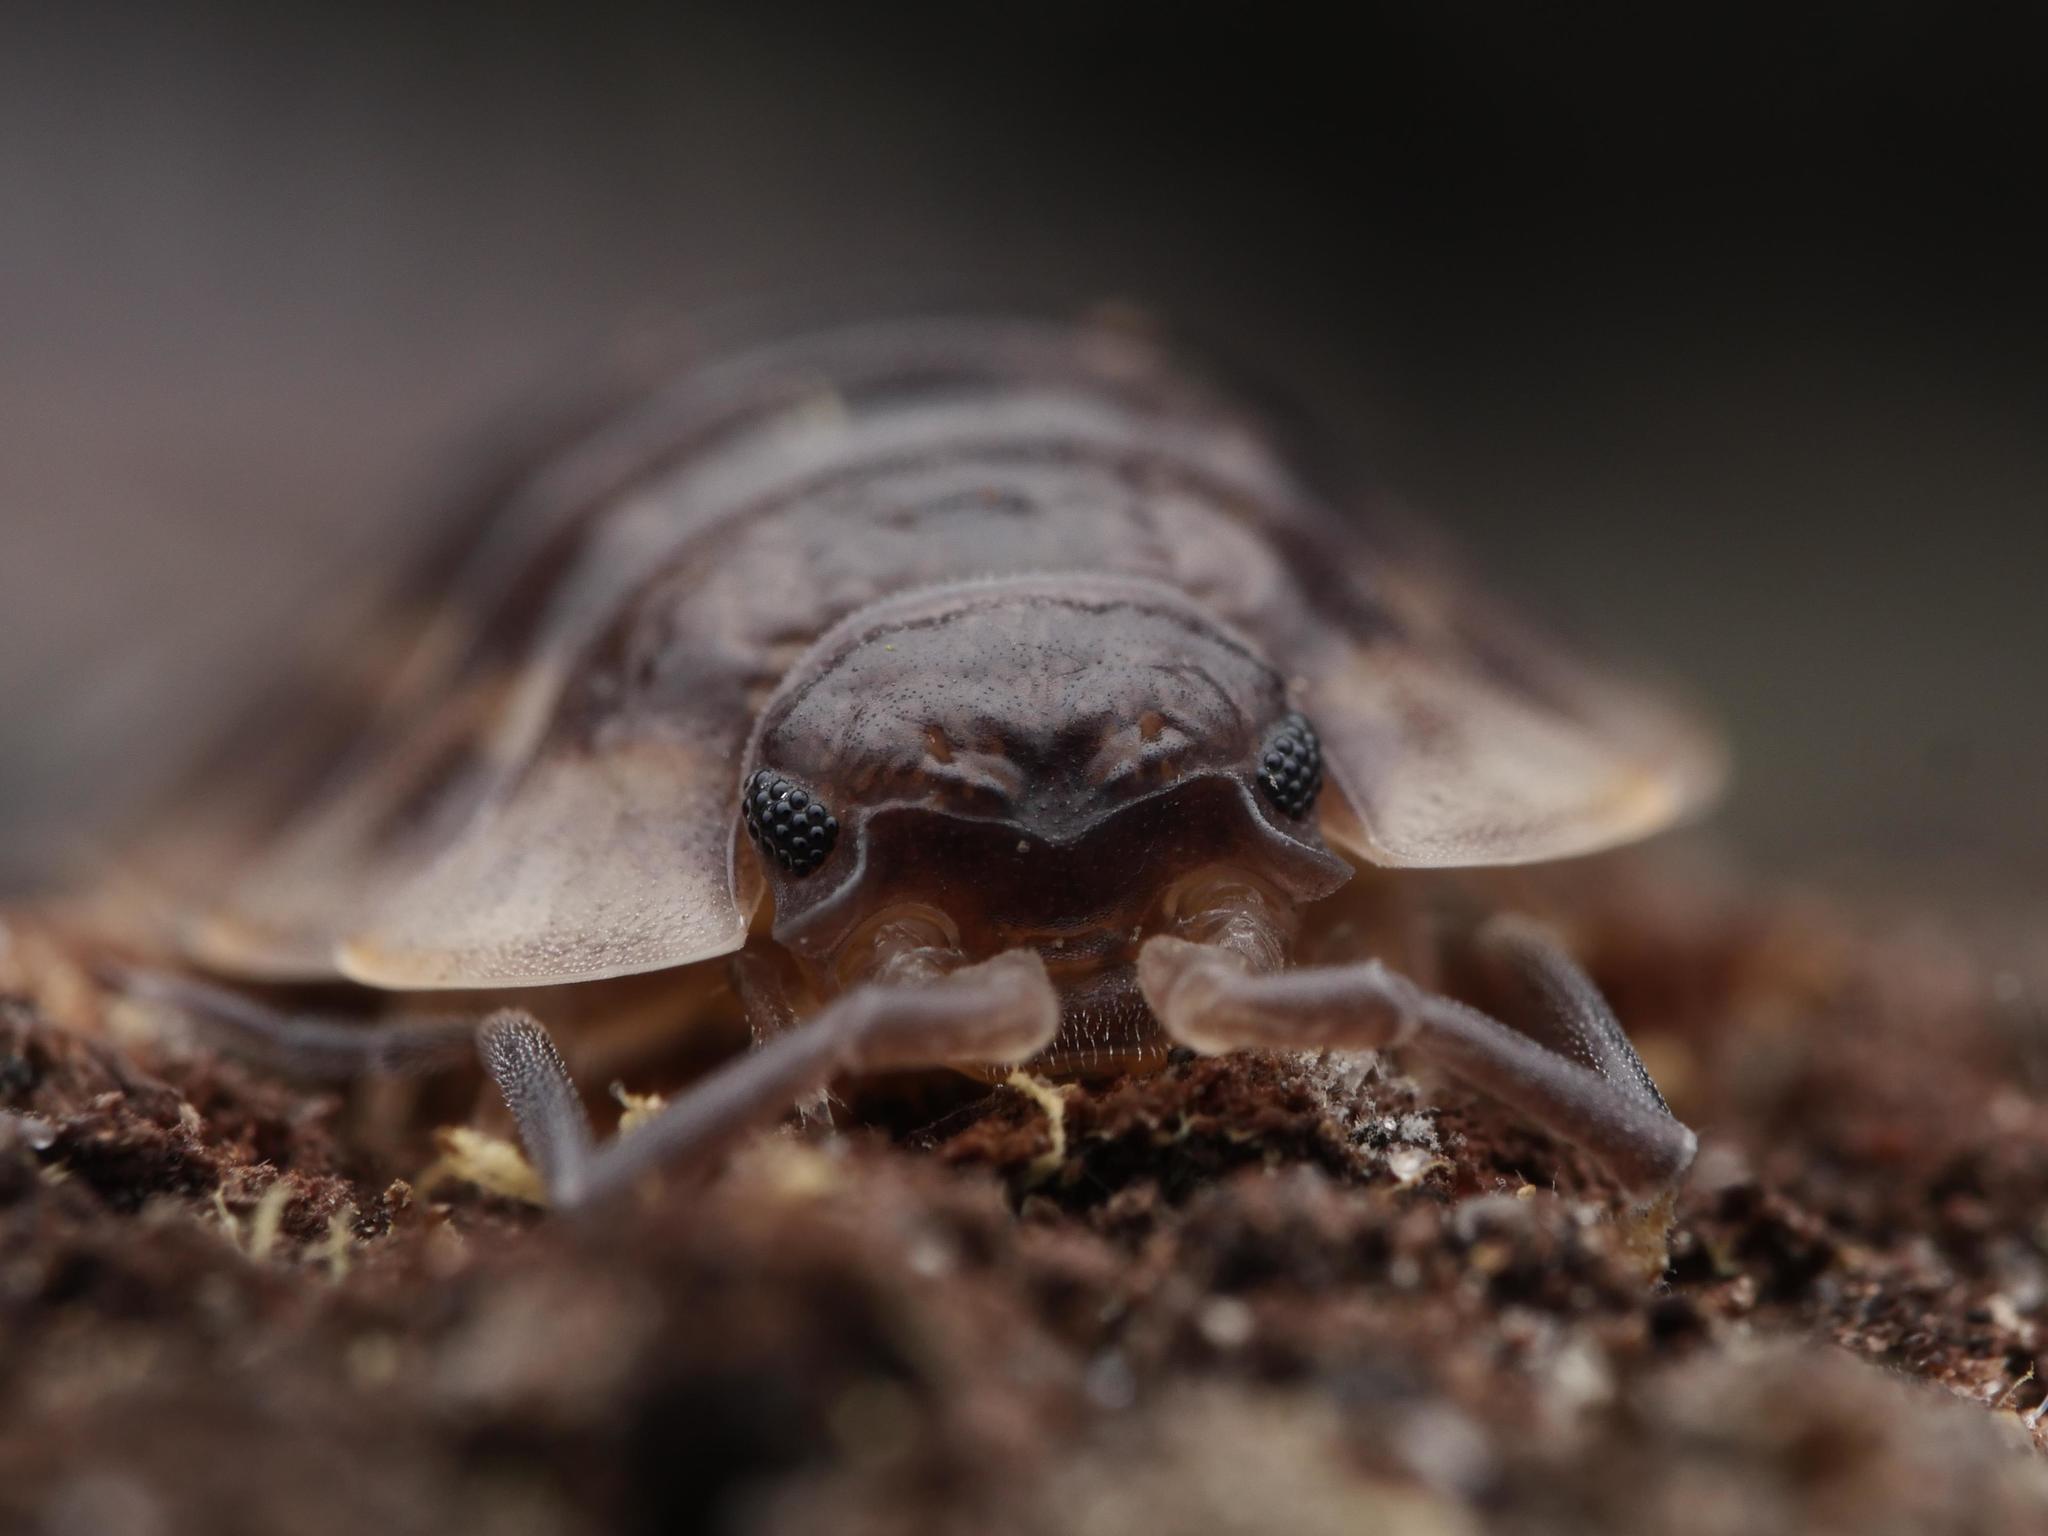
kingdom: Animalia
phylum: Arthropoda
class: Malacostraca
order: Isopoda
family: Oniscidae
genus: Oniscus
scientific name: Oniscus asellus
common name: Common shiny woodlouse
